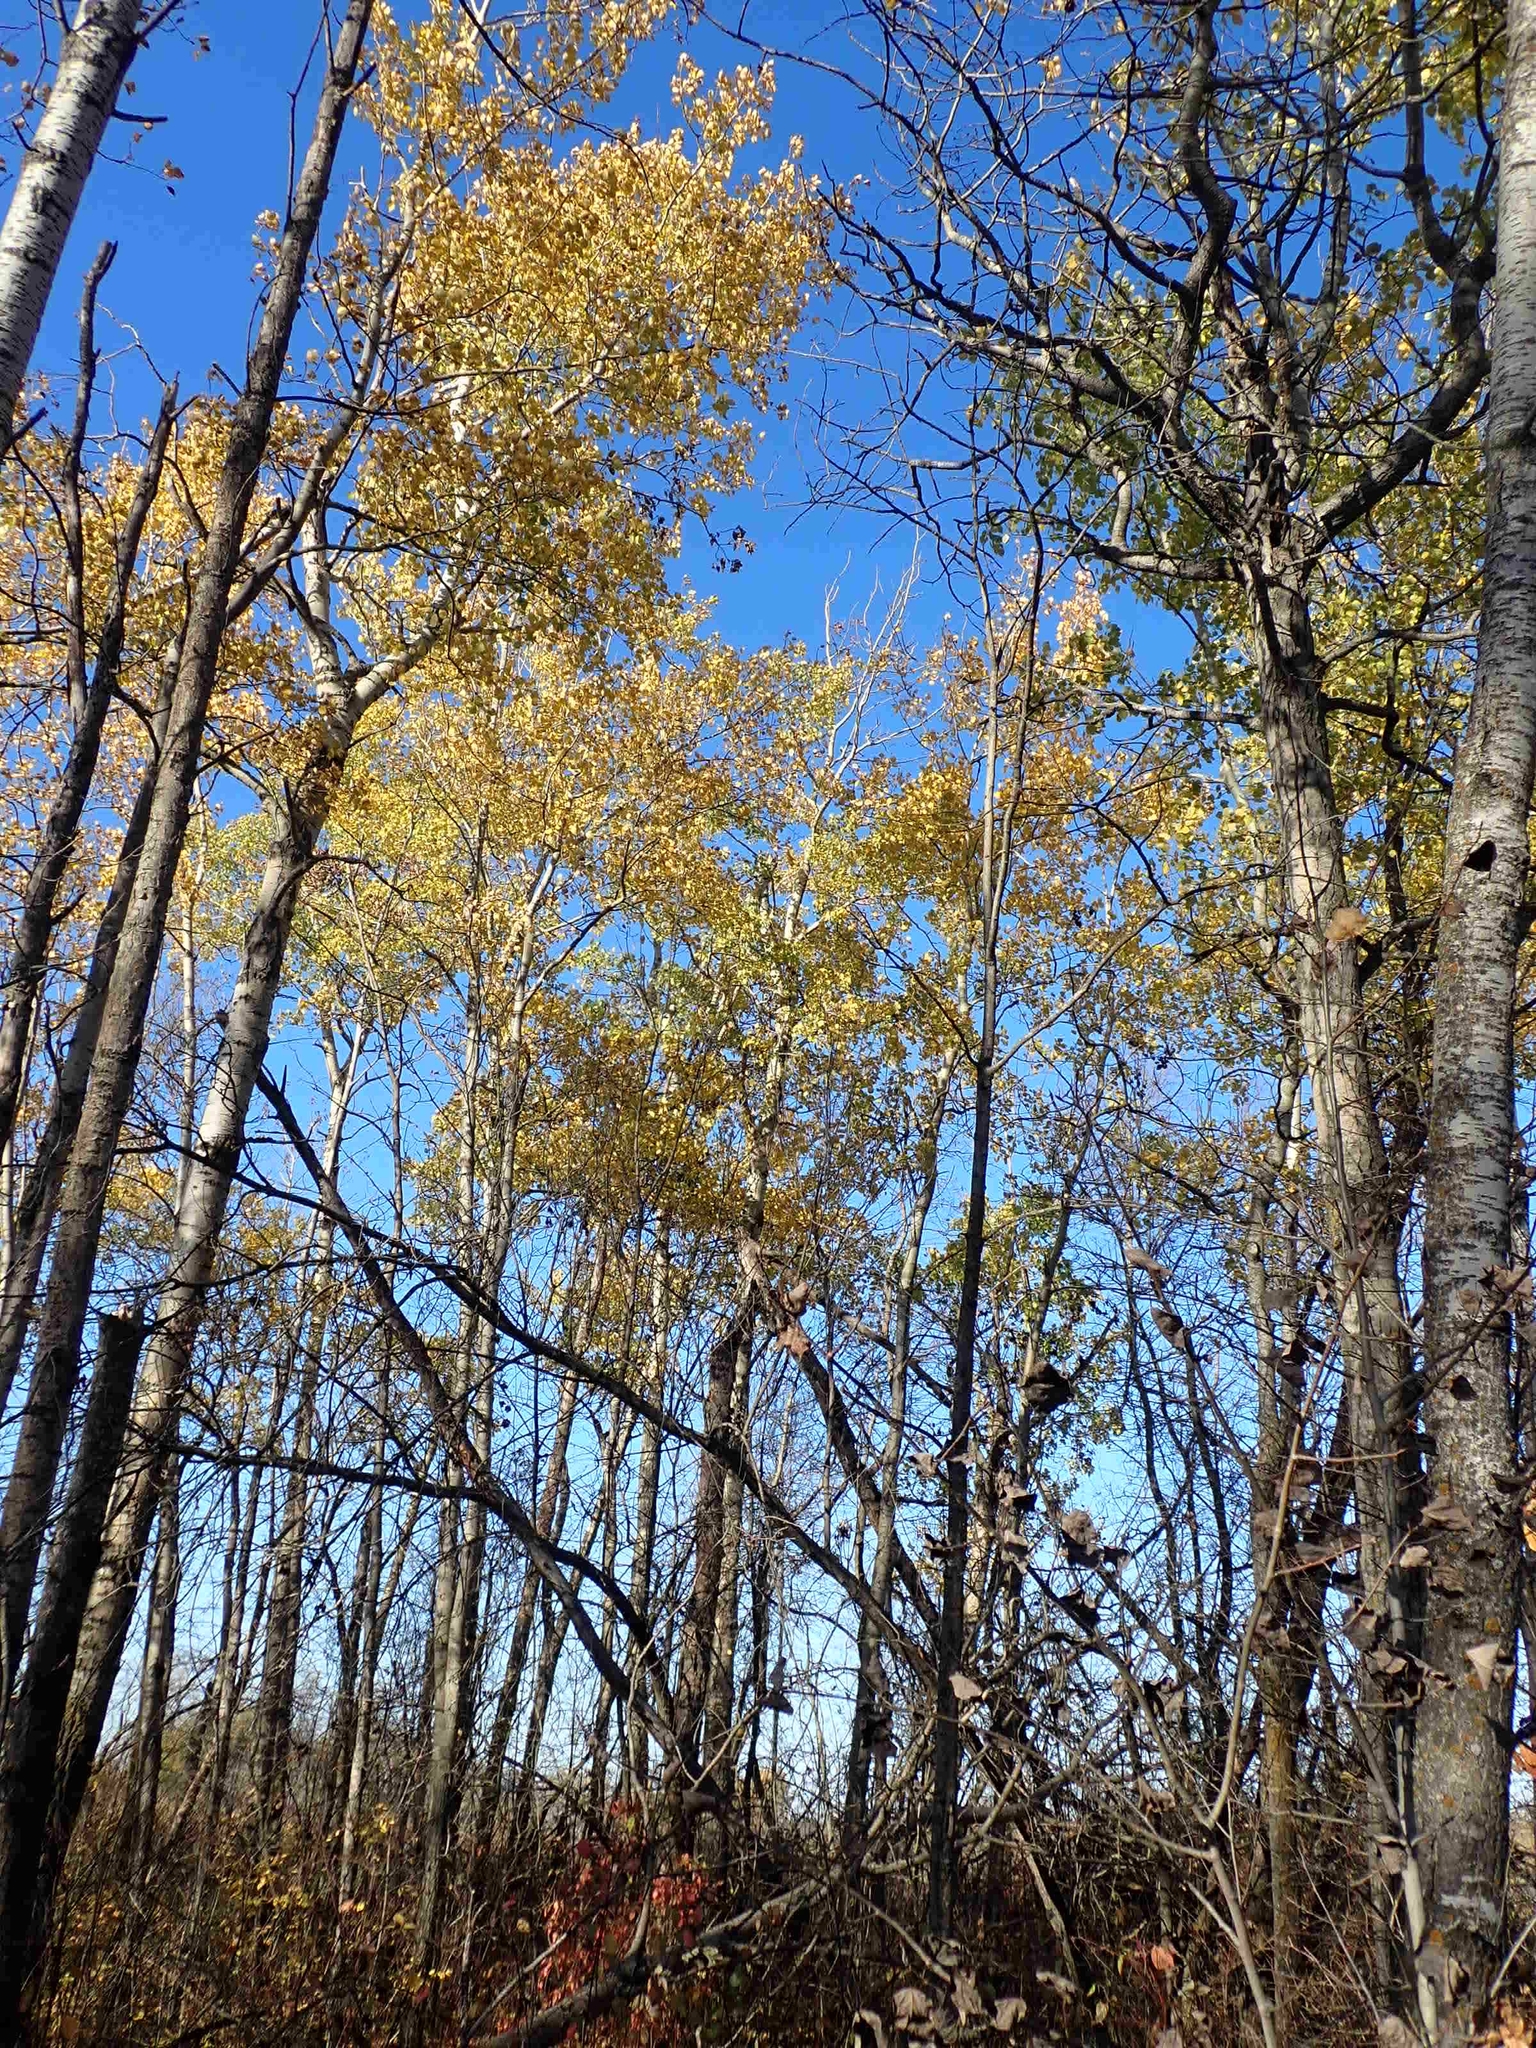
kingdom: Plantae
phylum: Tracheophyta
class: Magnoliopsida
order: Malpighiales
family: Salicaceae
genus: Populus
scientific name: Populus tremuloides
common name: Quaking aspen
